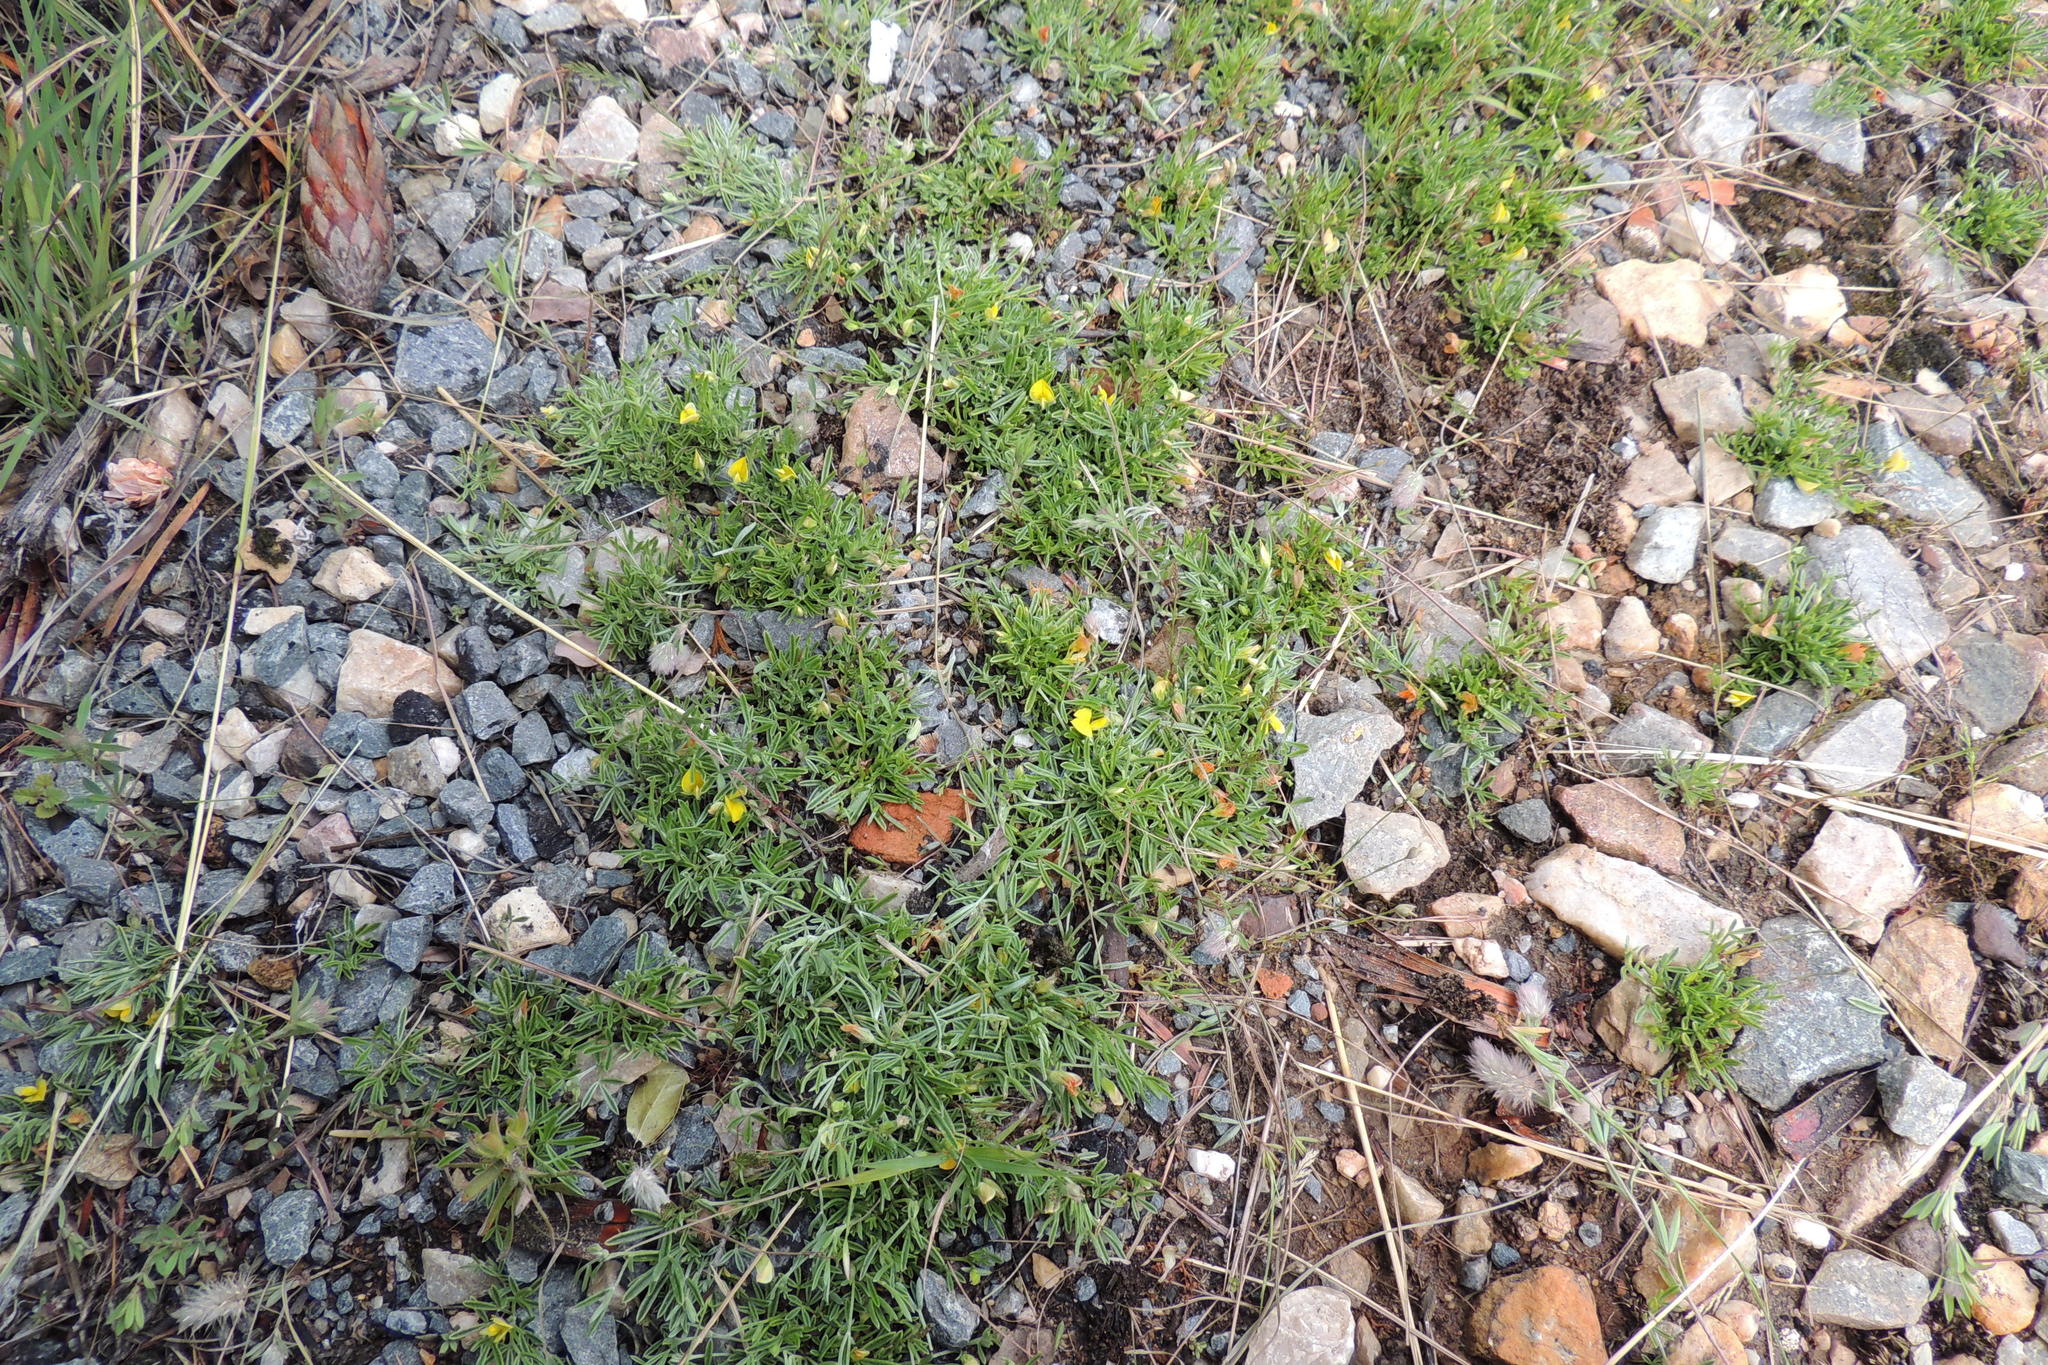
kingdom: Plantae
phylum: Tracheophyta
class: Magnoliopsida
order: Fabales
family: Fabaceae
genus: Lotononis
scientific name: Lotononis pungens
